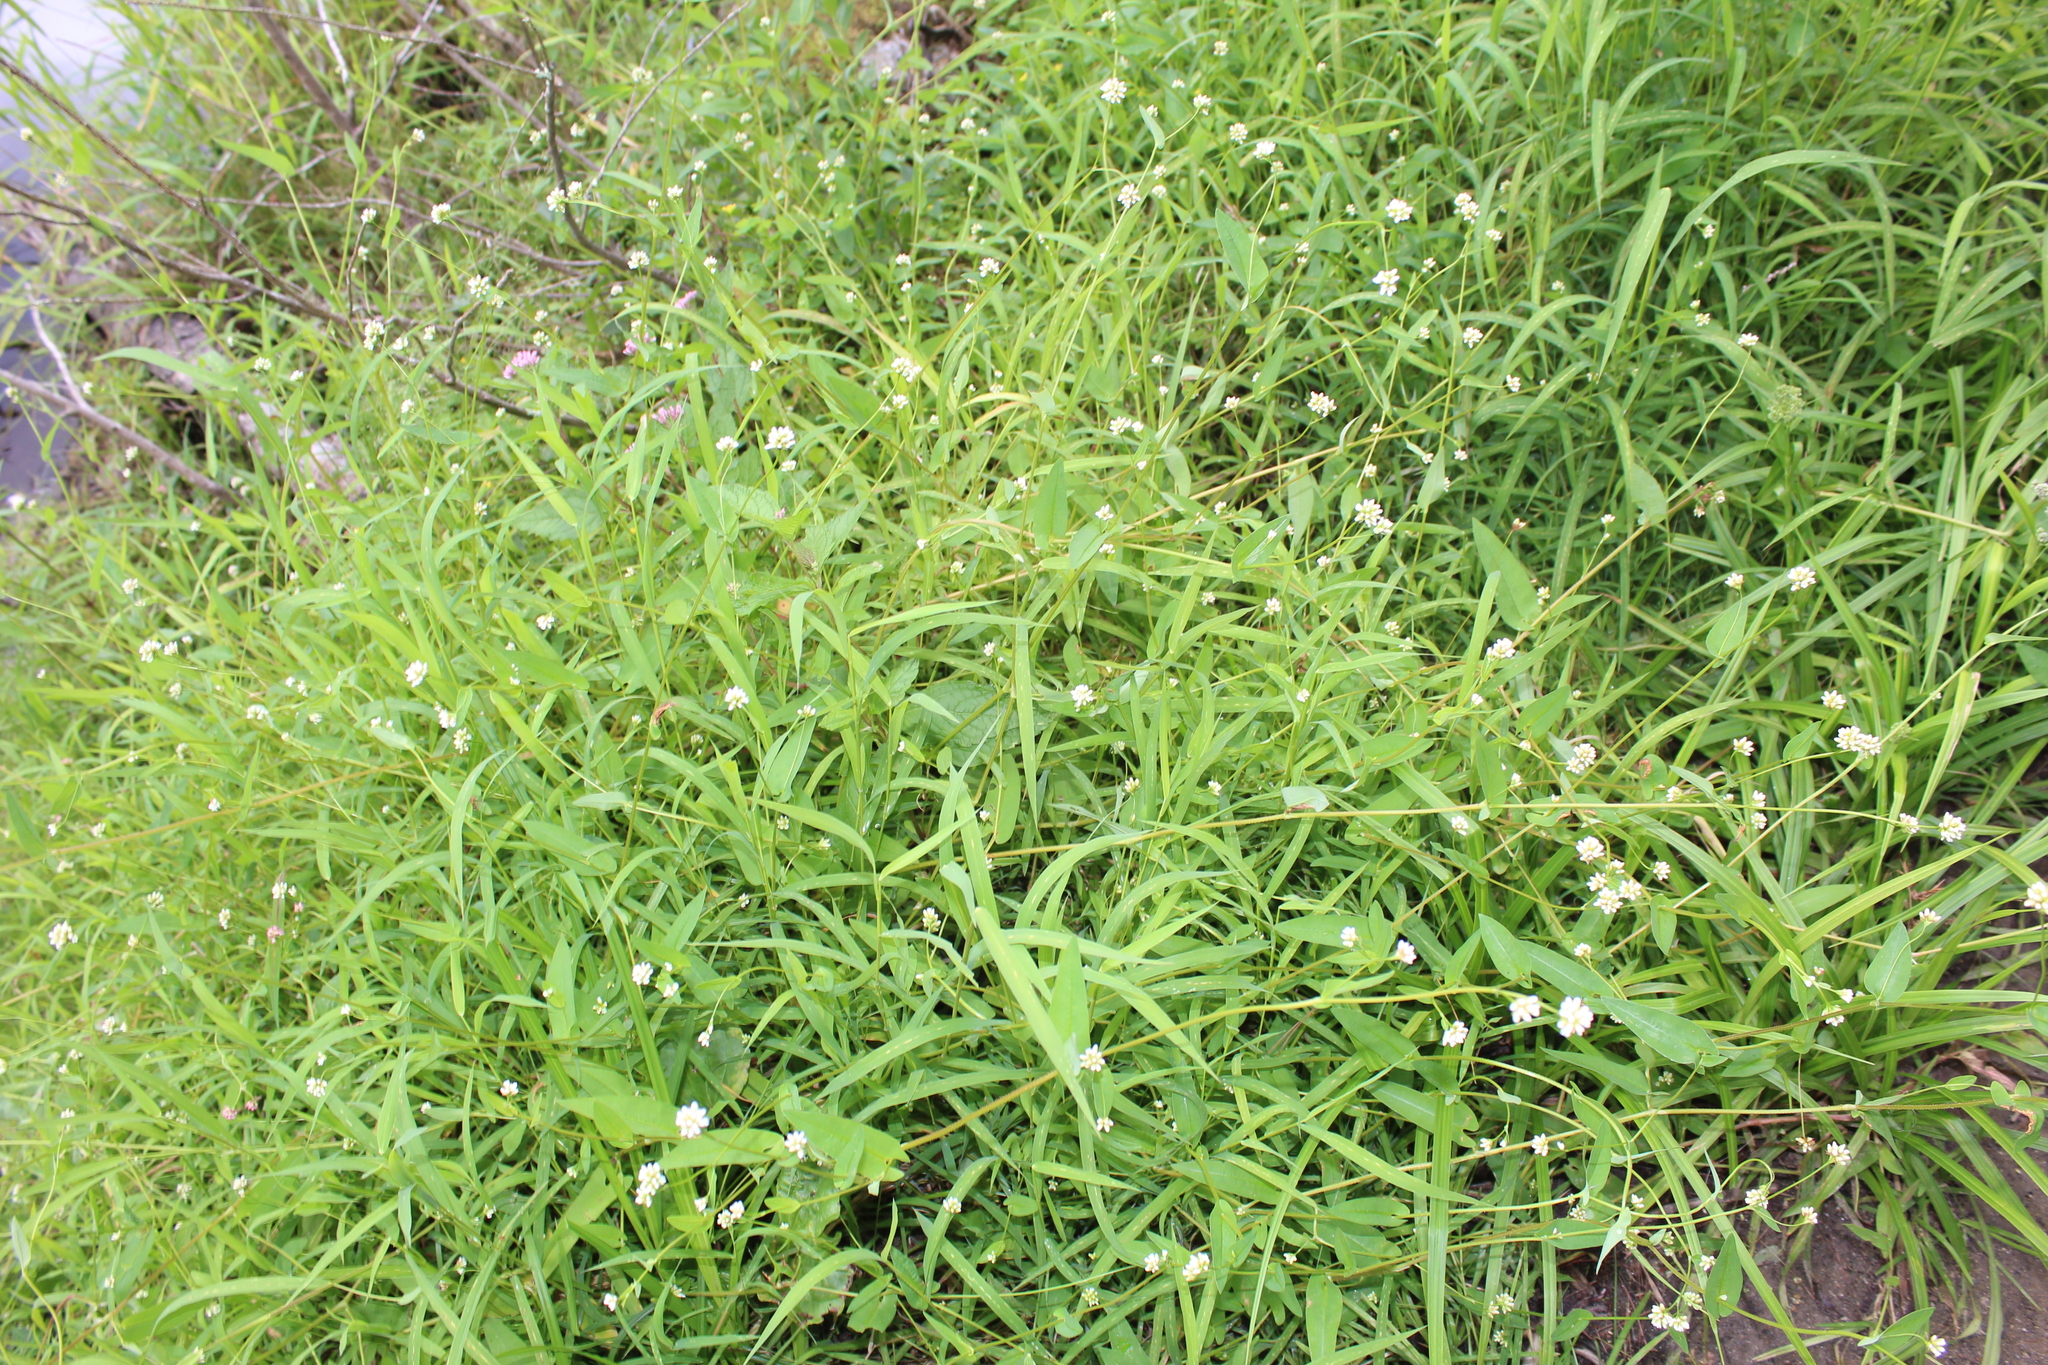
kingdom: Plantae
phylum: Tracheophyta
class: Magnoliopsida
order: Caryophyllales
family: Polygonaceae
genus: Persicaria
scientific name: Persicaria sagittata
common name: American tearthumb
